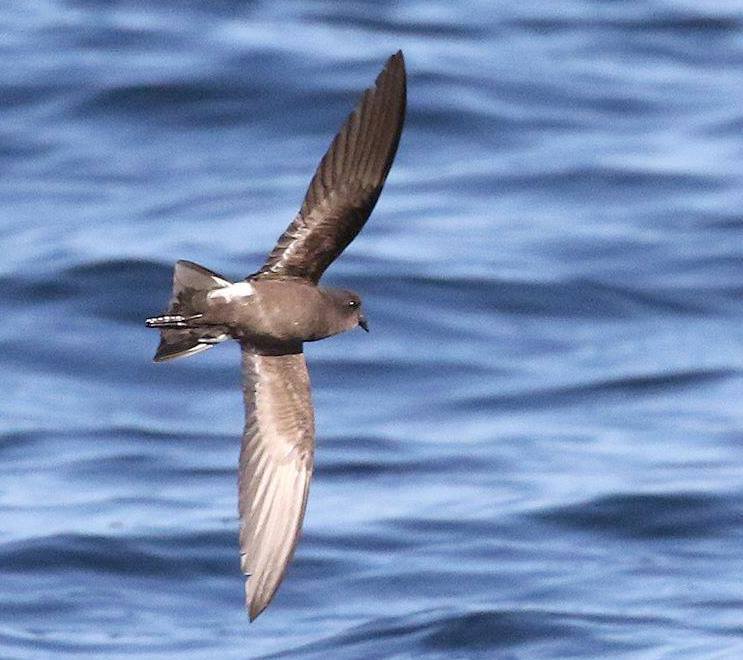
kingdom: Animalia
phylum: Chordata
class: Aves
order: Procellariiformes
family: Hydrobatidae
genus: Oceanites
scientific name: Oceanites oceanicus
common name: Wilson's storm petrel
